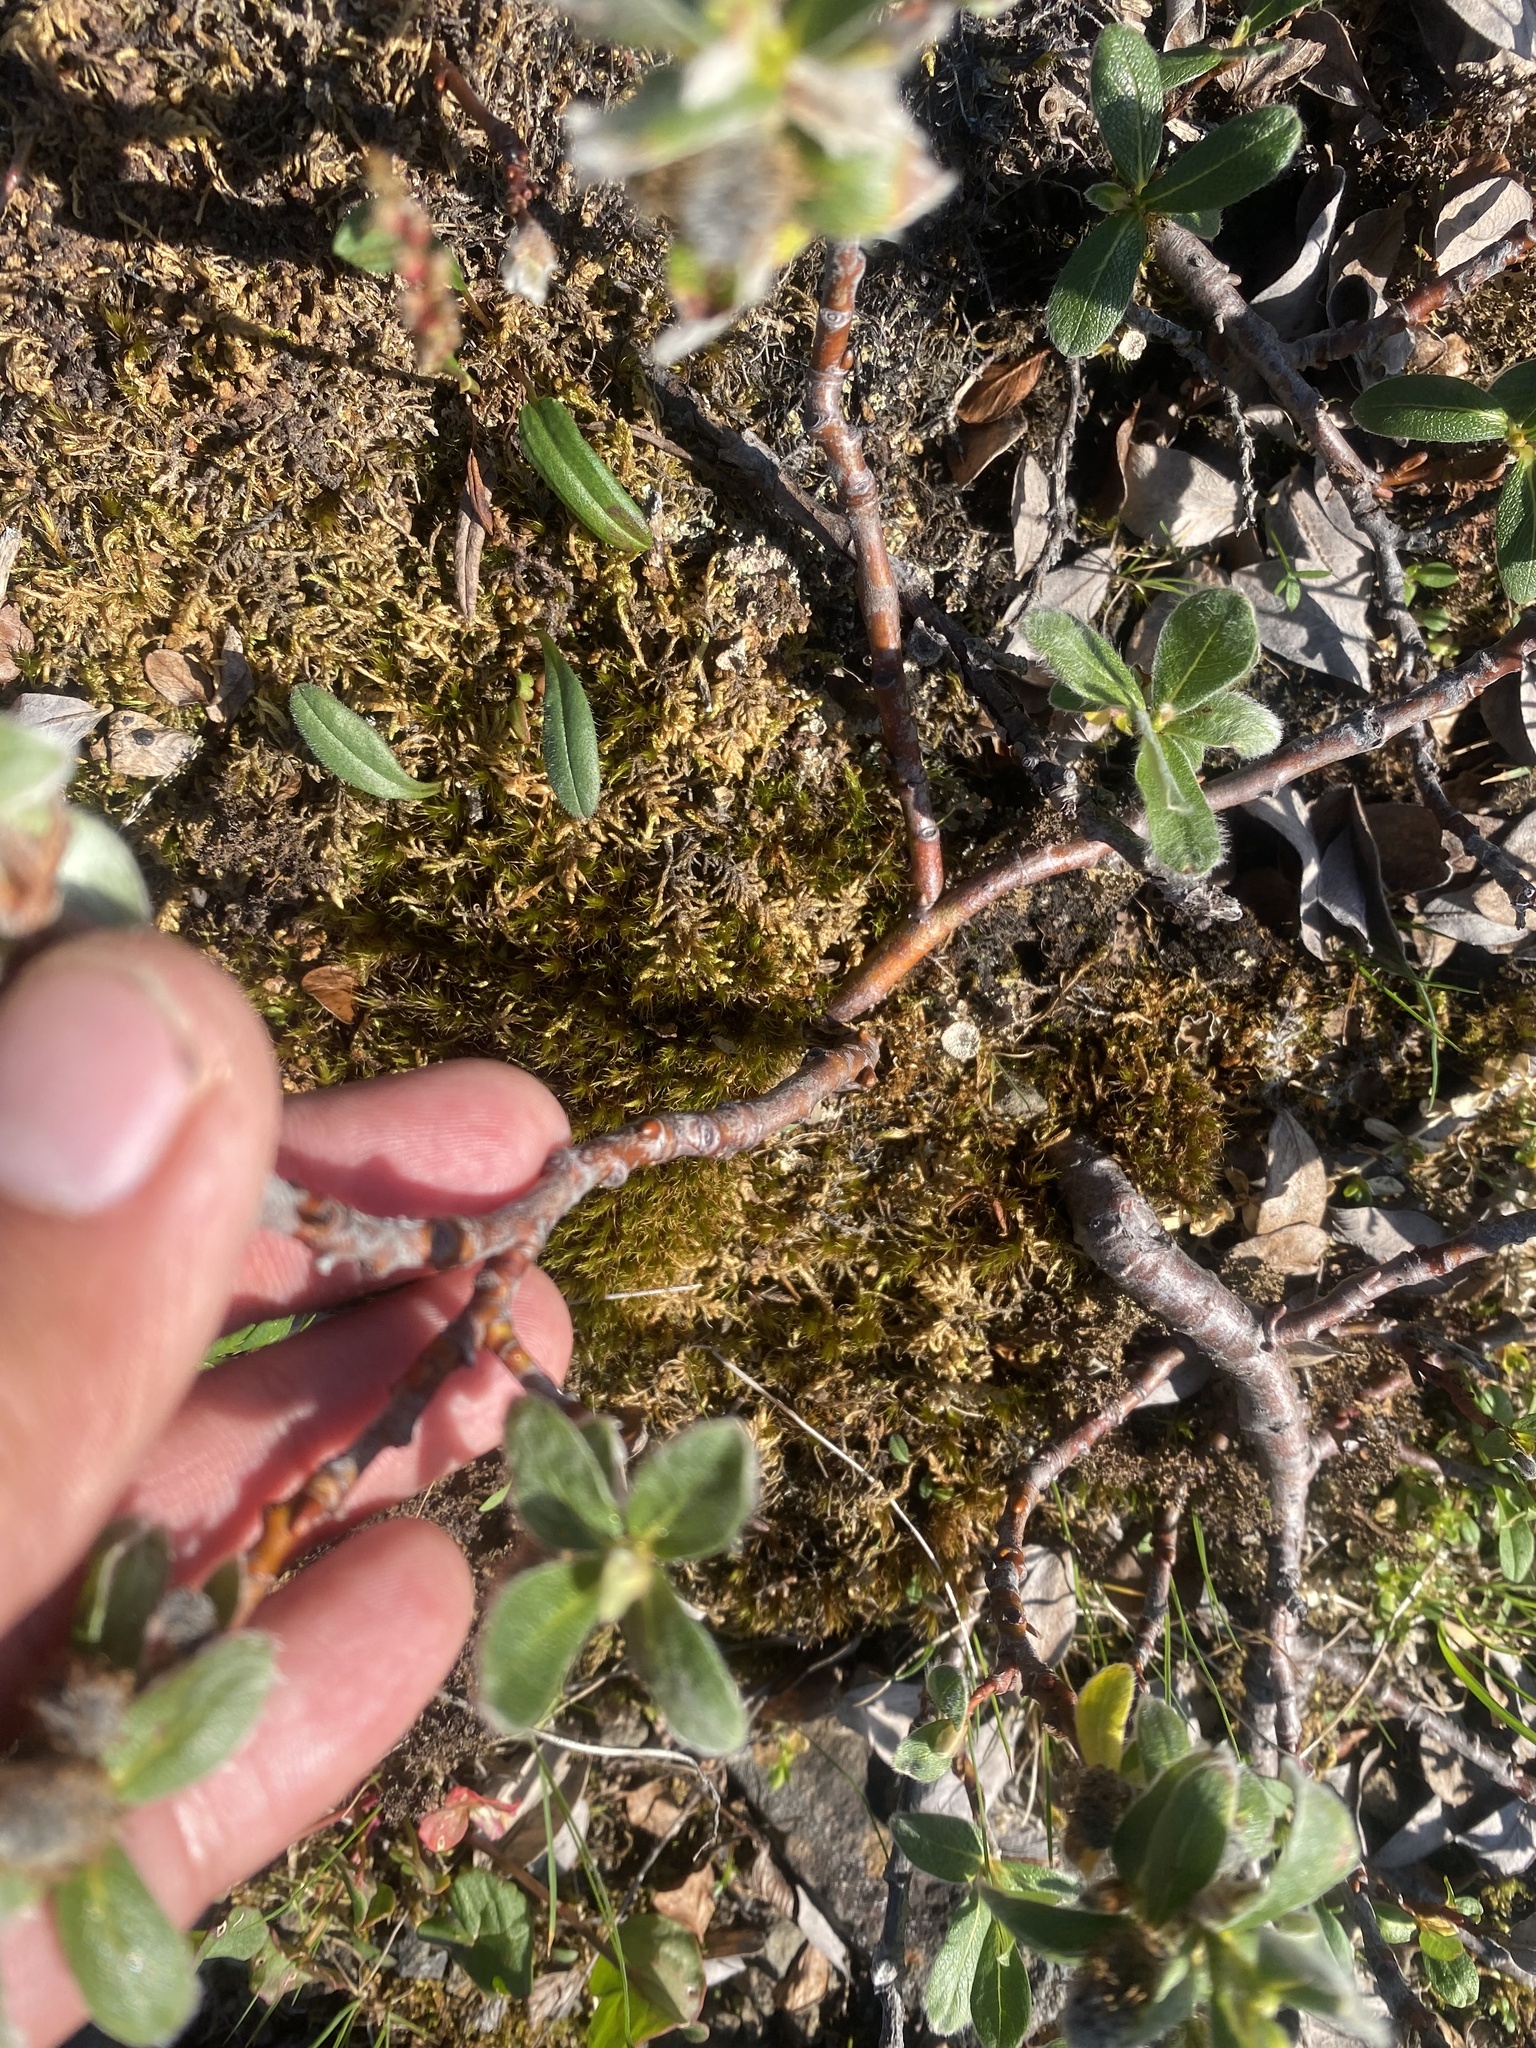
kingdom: Plantae
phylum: Tracheophyta
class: Magnoliopsida
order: Malpighiales
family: Salicaceae
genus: Salix
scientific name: Salix reptans
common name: Arctic creeping willow
